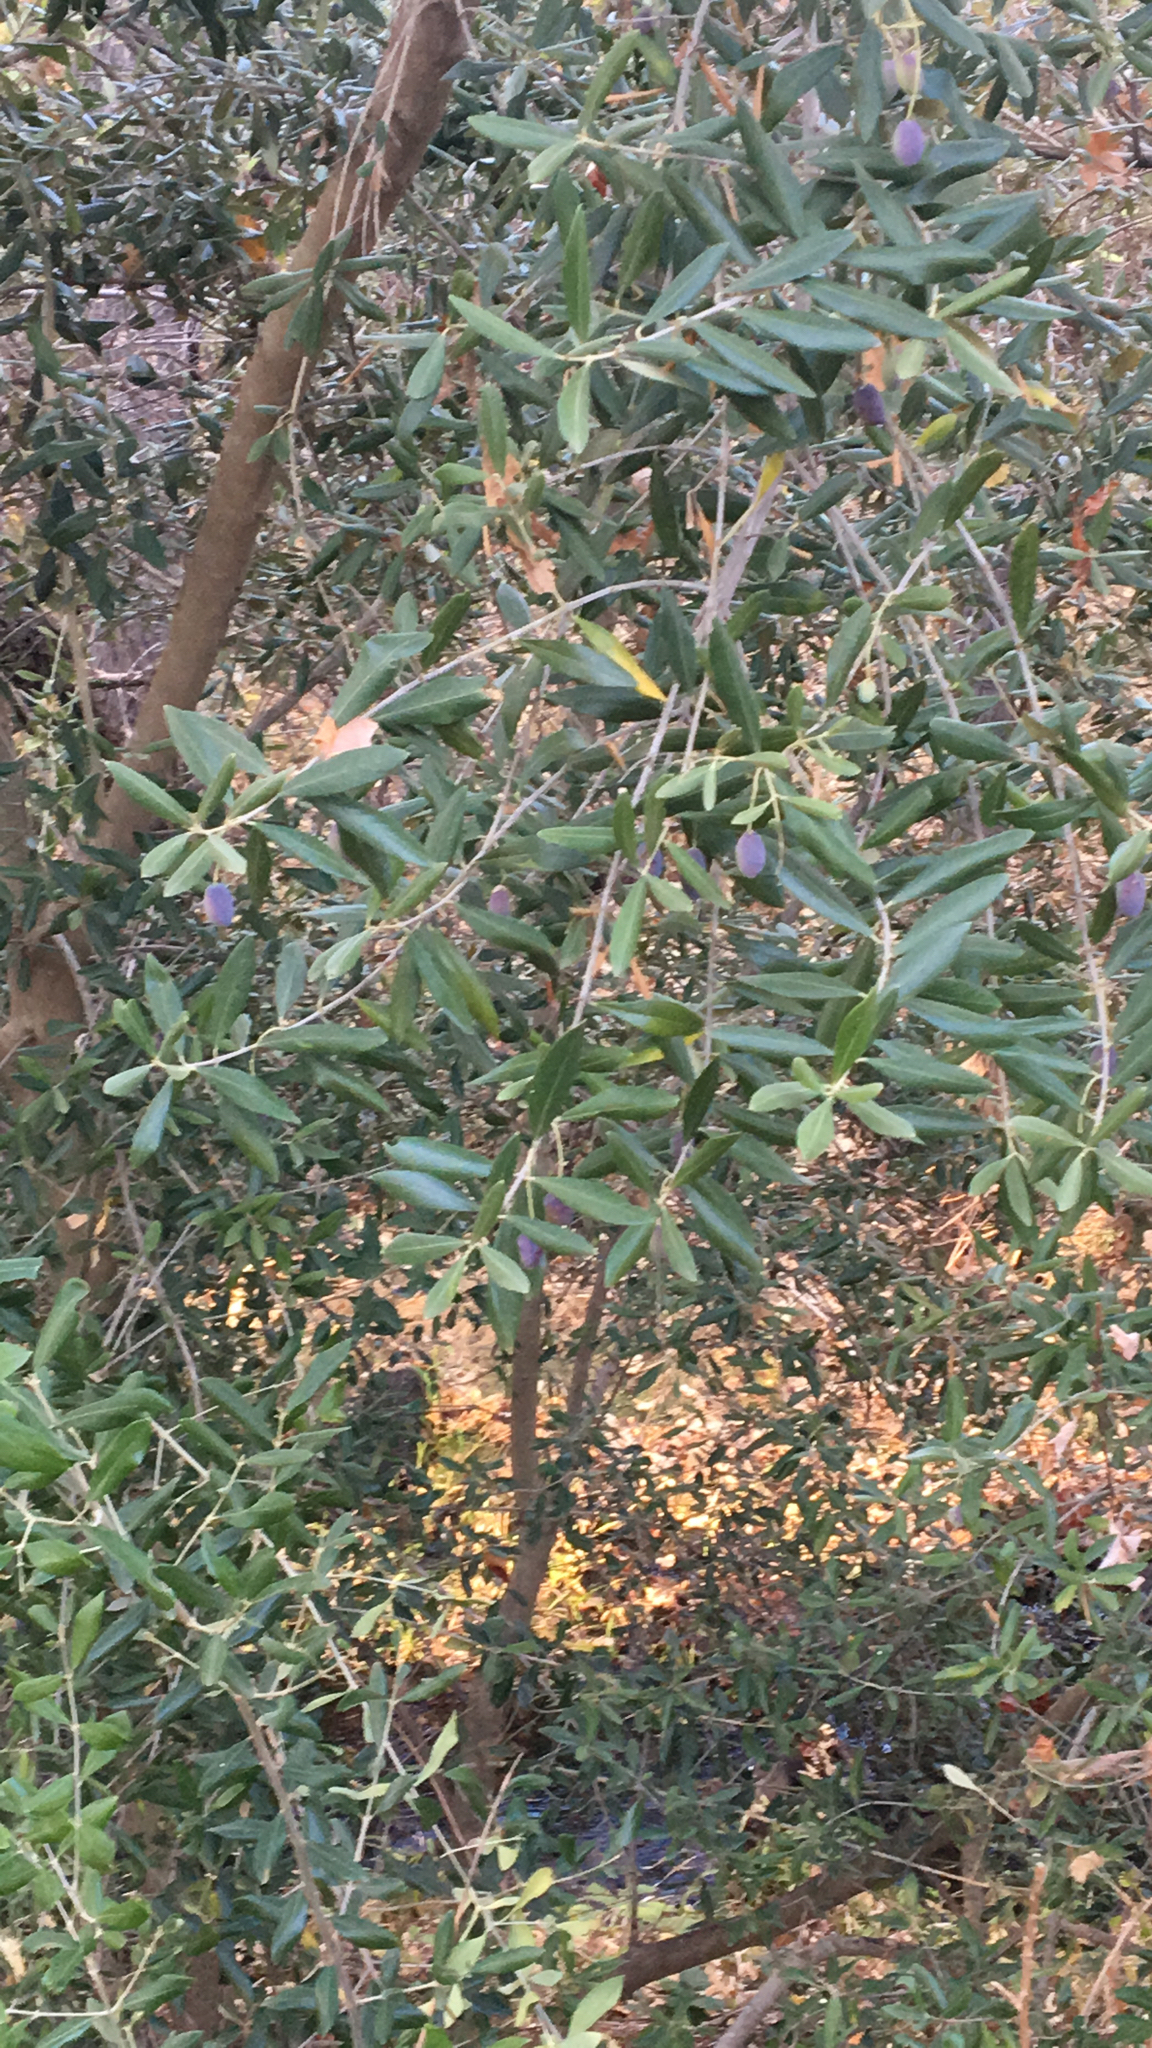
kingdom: Plantae
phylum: Tracheophyta
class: Magnoliopsida
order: Lamiales
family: Oleaceae
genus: Olea
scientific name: Olea europaea
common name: Olive
